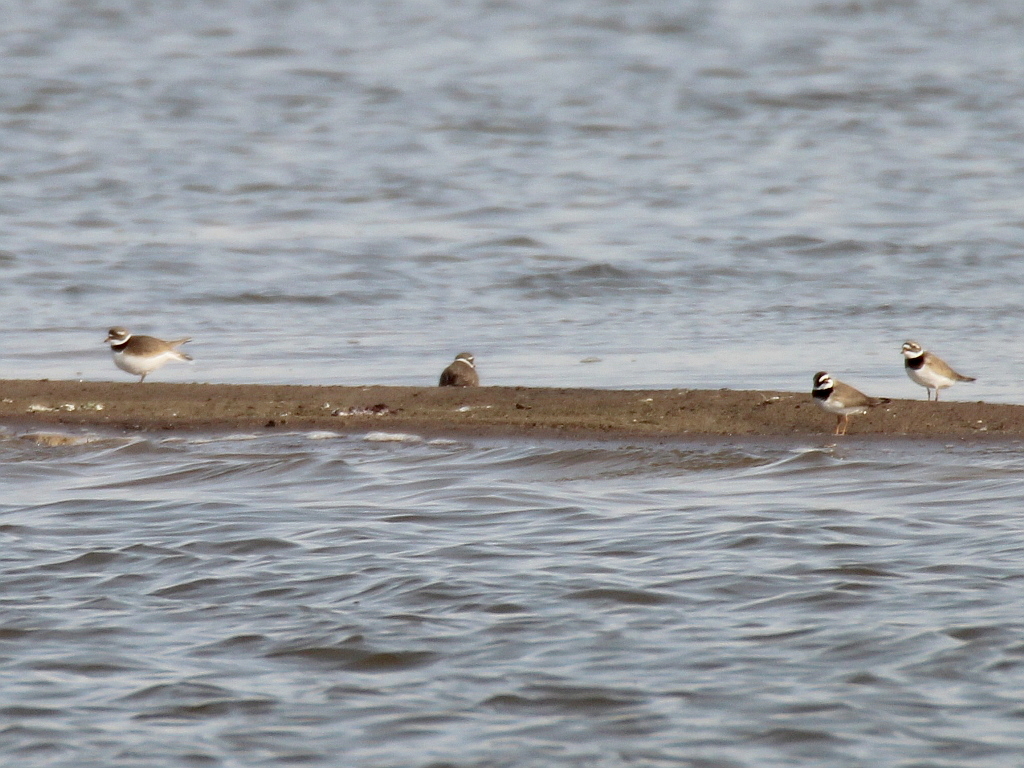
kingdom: Animalia
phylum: Chordata
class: Aves
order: Charadriiformes
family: Charadriidae
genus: Charadrius
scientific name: Charadrius hiaticula
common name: Common ringed plover
